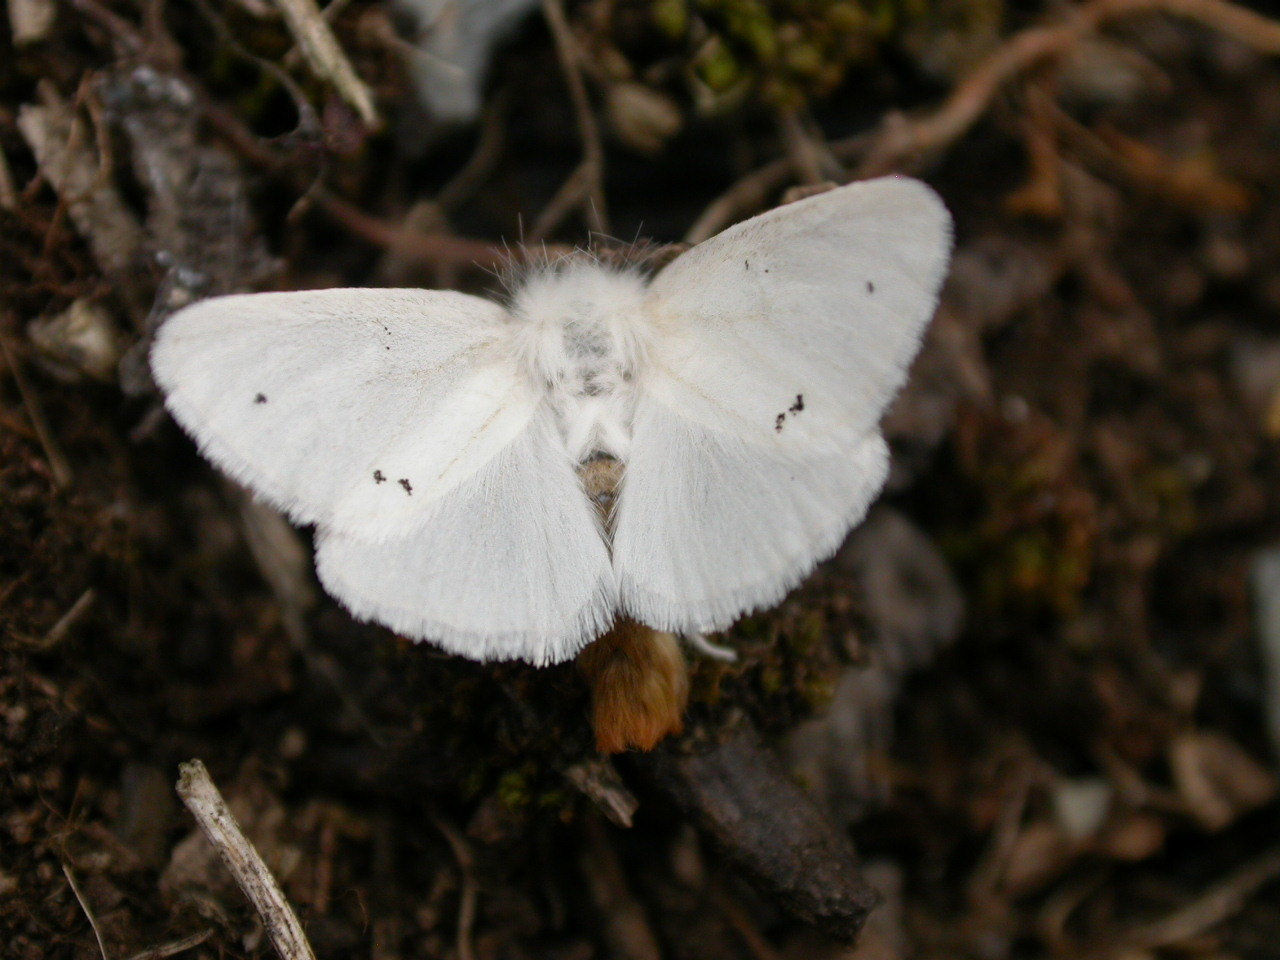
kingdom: Animalia
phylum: Arthropoda
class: Insecta
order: Lepidoptera
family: Erebidae
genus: Euproctis
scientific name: Euproctis chrysorrhoea
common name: Brown-tail
